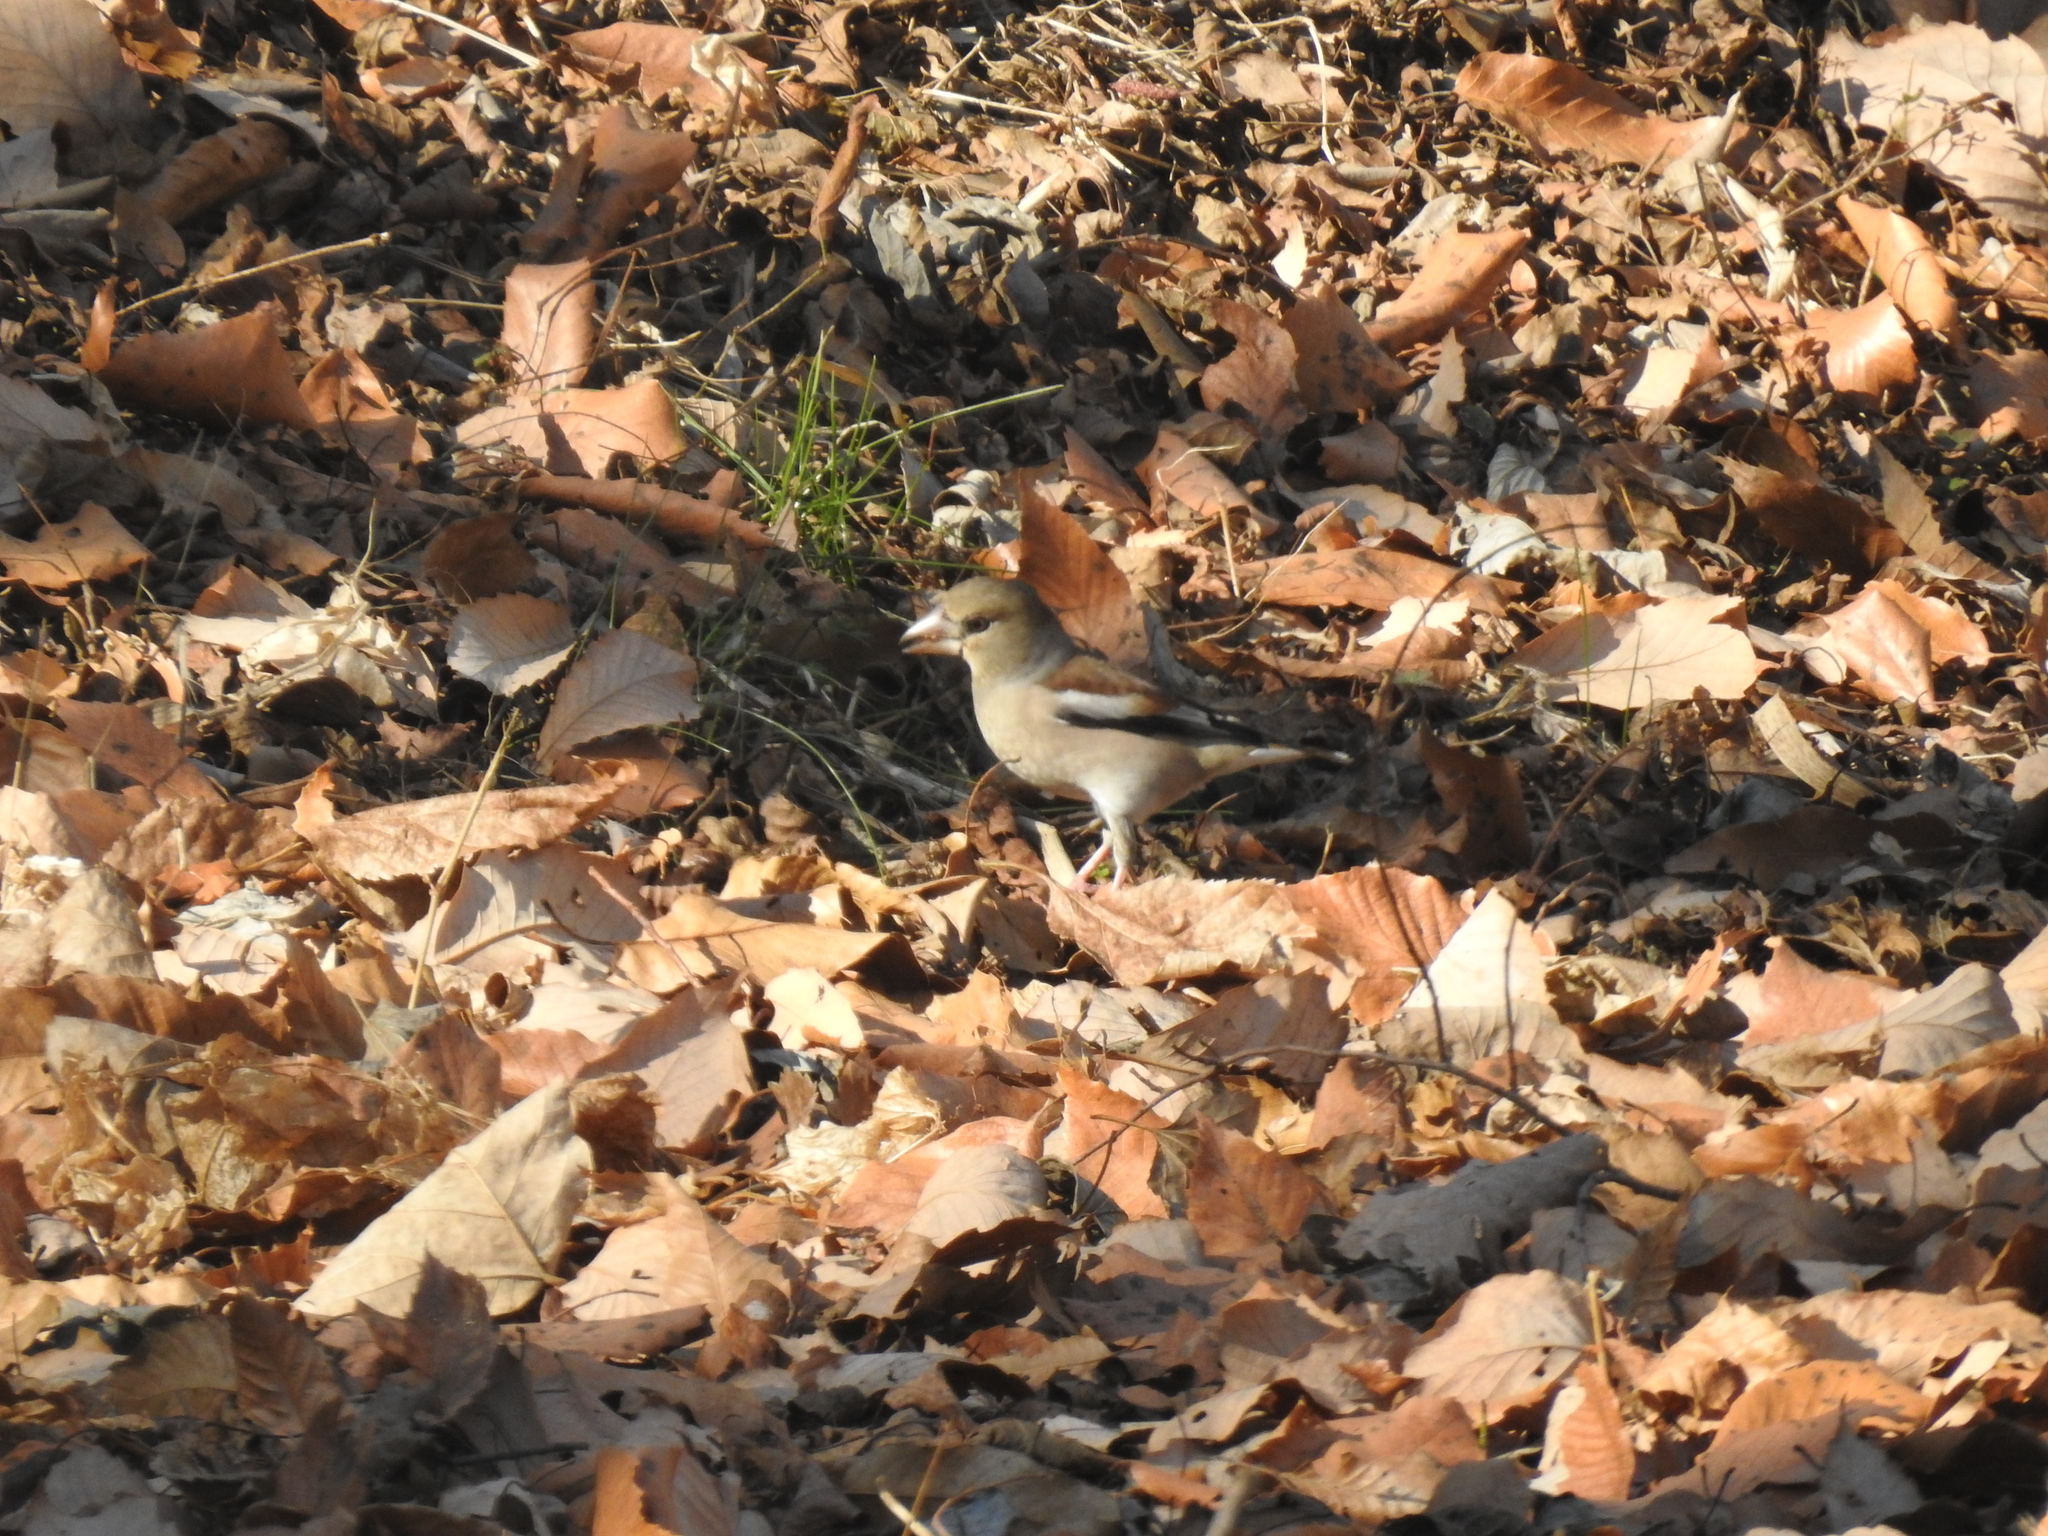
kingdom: Animalia
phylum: Chordata
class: Aves
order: Passeriformes
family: Fringillidae
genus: Coccothraustes
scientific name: Coccothraustes coccothraustes
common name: Hawfinch
